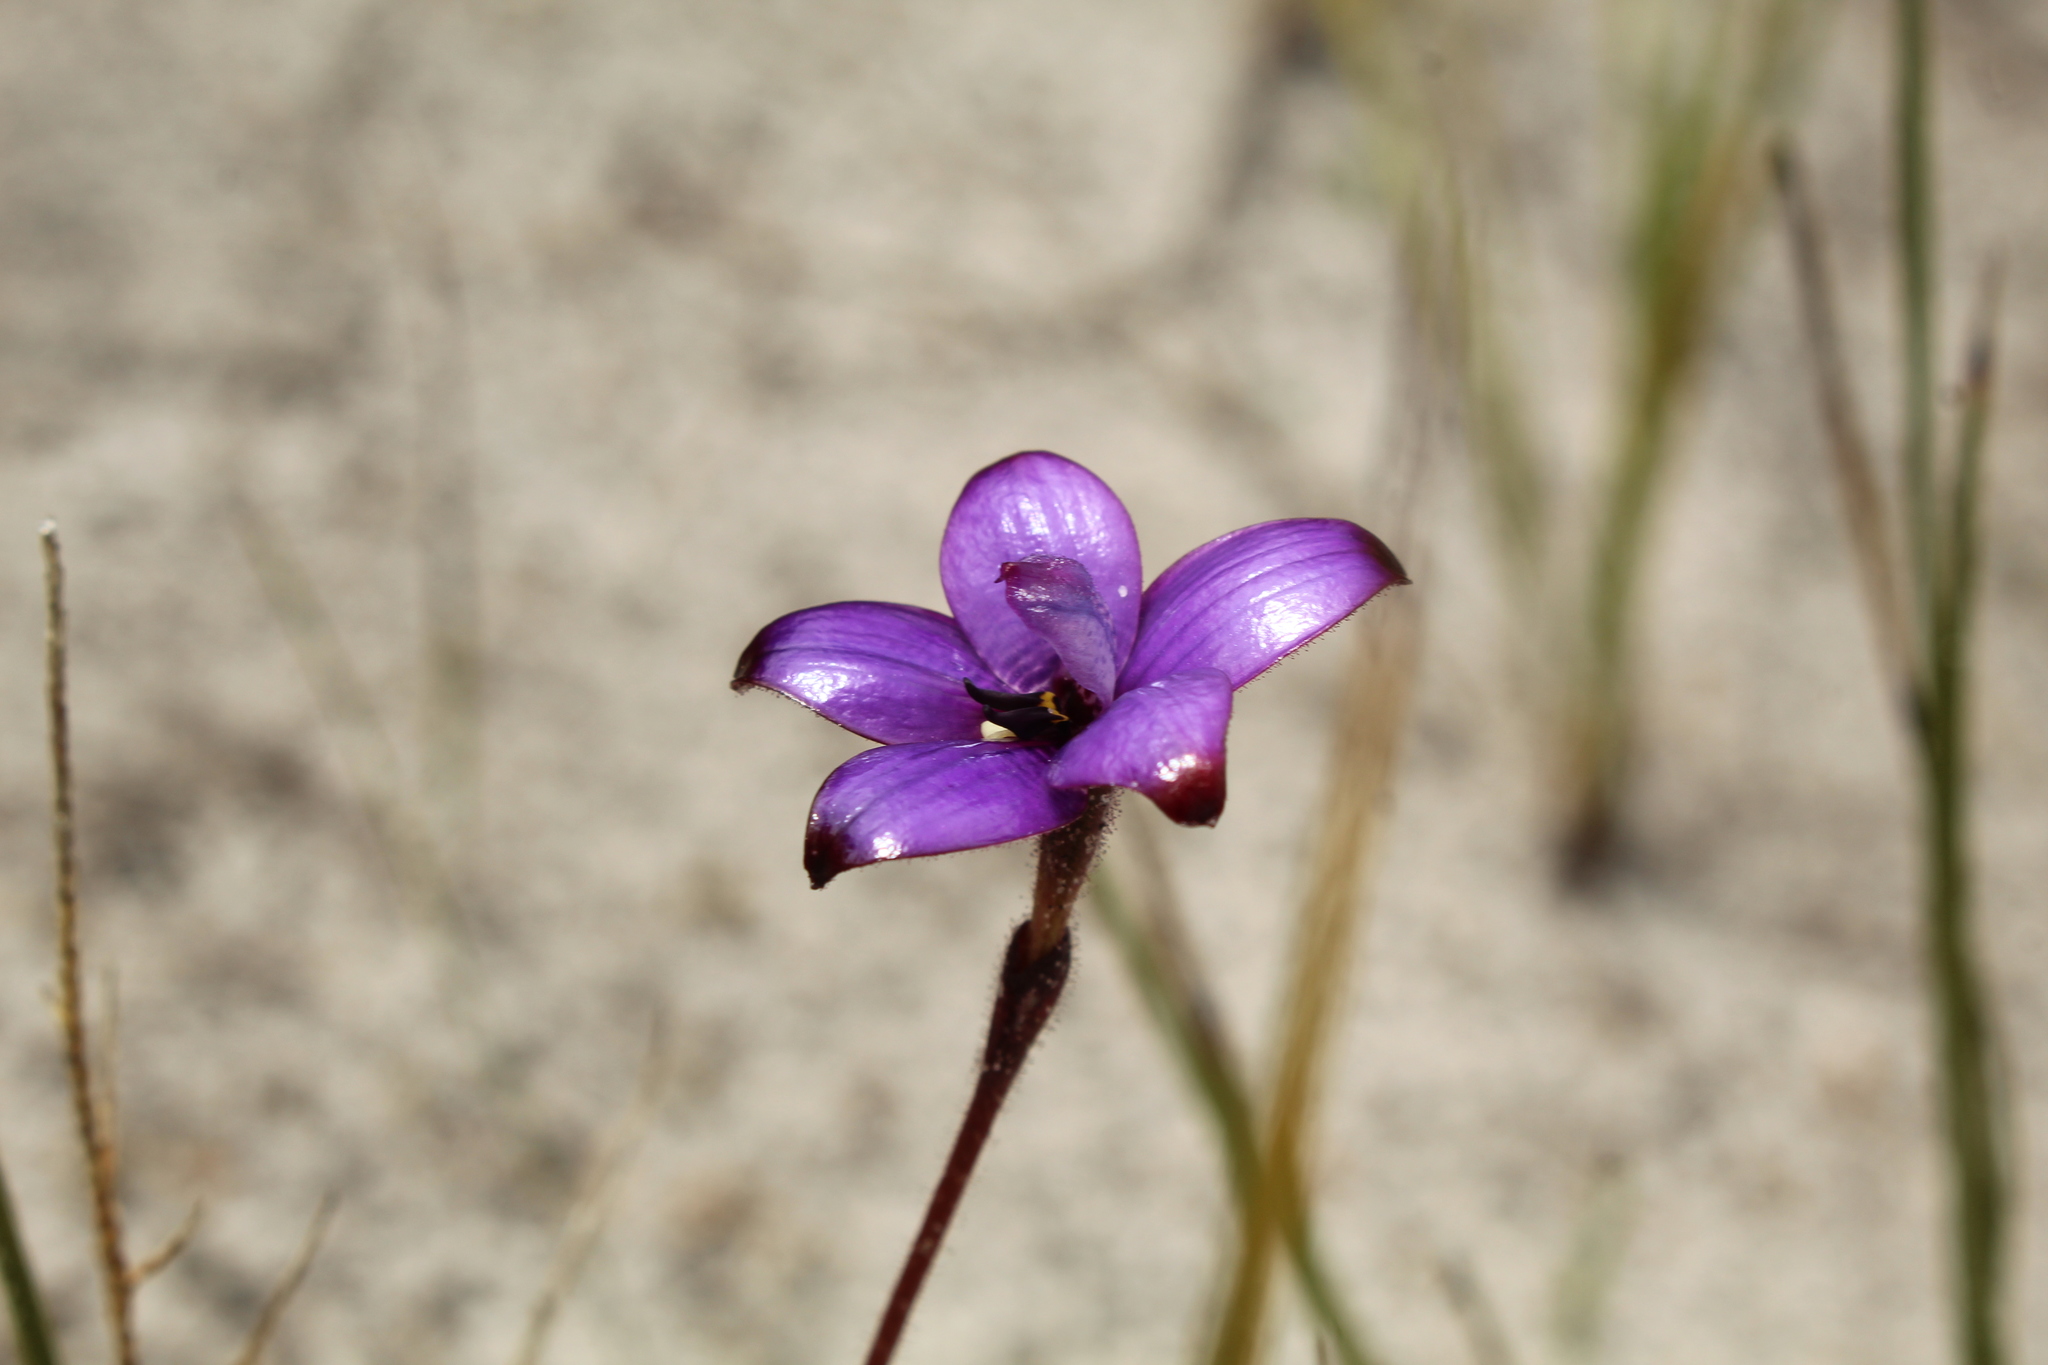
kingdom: Plantae
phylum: Tracheophyta
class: Liliopsida
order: Asparagales
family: Orchidaceae
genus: Caladenia
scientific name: Caladenia brunonis
